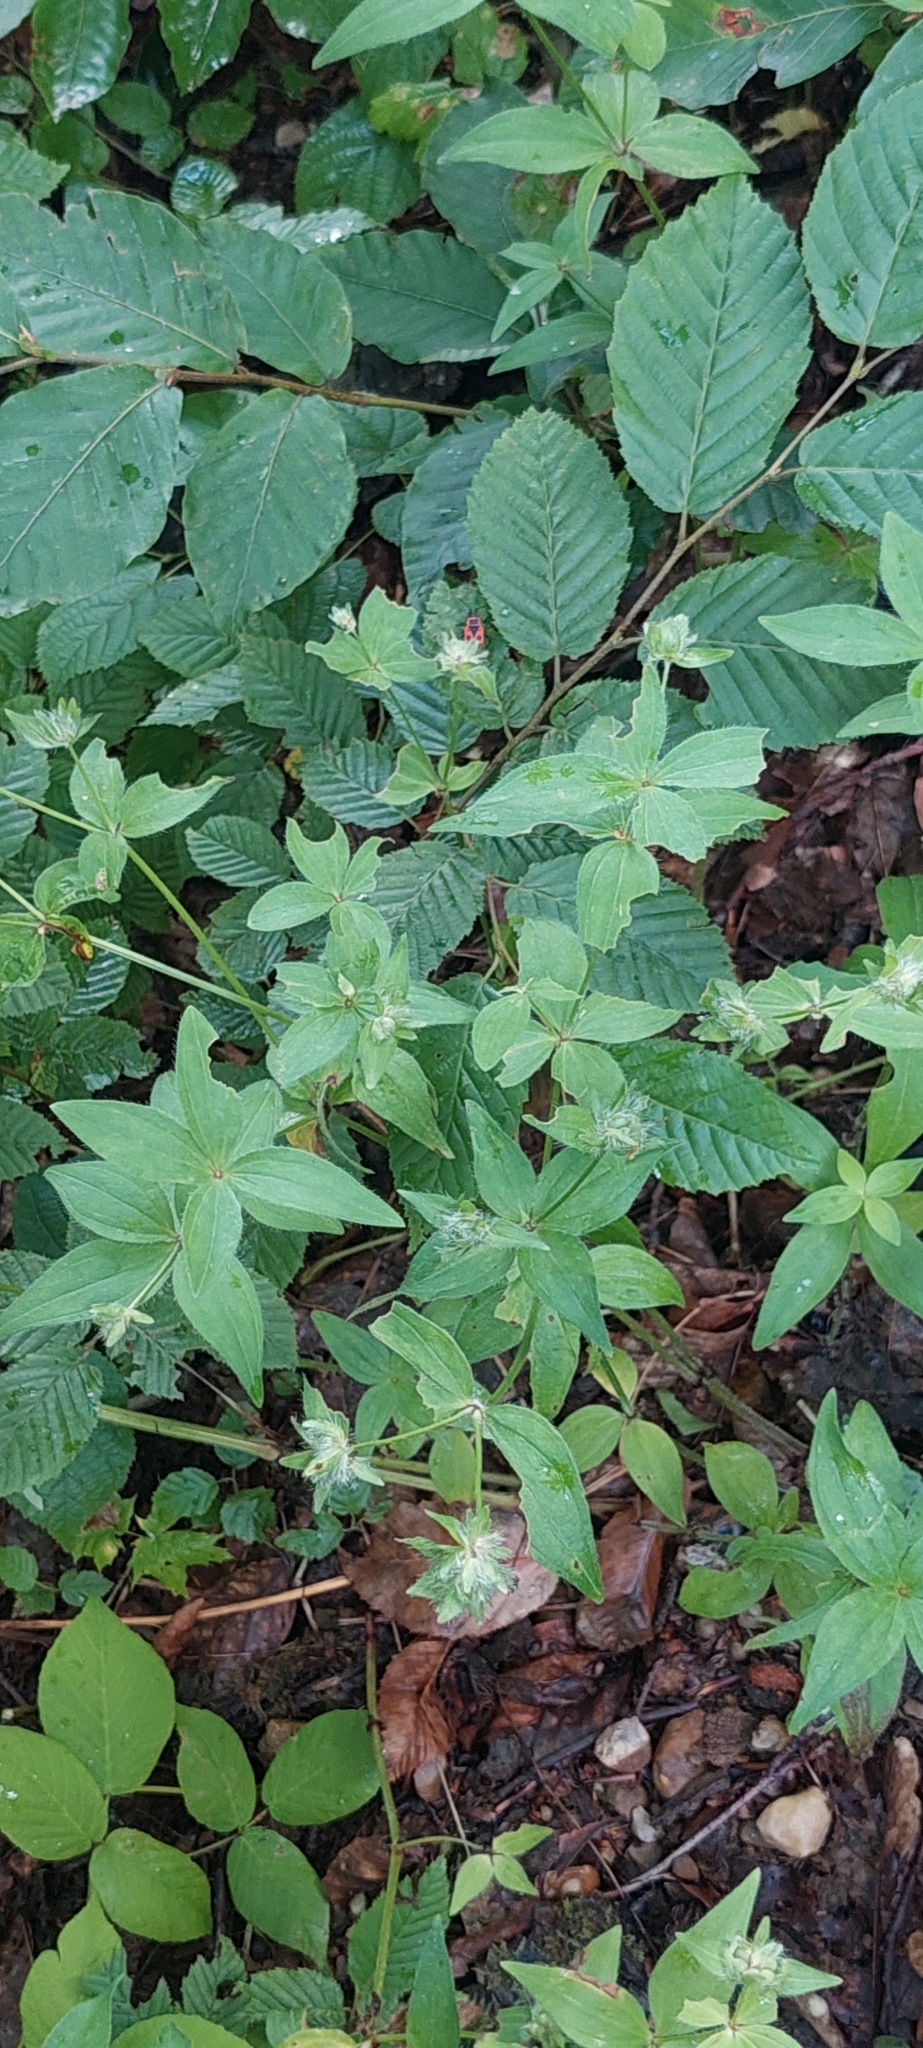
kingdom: Plantae
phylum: Tracheophyta
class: Magnoliopsida
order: Gentianales
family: Rubiaceae
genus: Asperula
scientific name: Asperula taurina
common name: Pink woodruff
